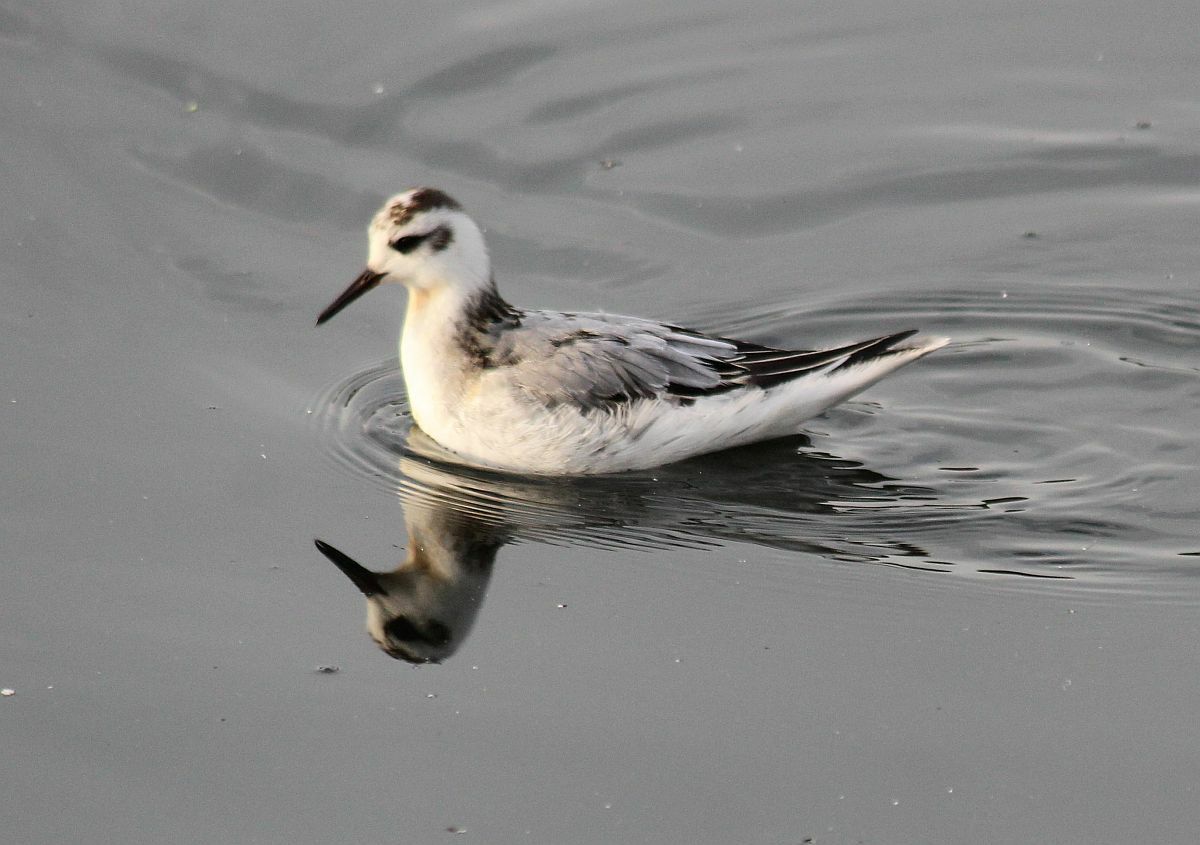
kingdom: Animalia
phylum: Chordata
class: Aves
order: Charadriiformes
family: Scolopacidae
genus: Phalaropus
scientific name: Phalaropus fulicarius
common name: Red phalarope
